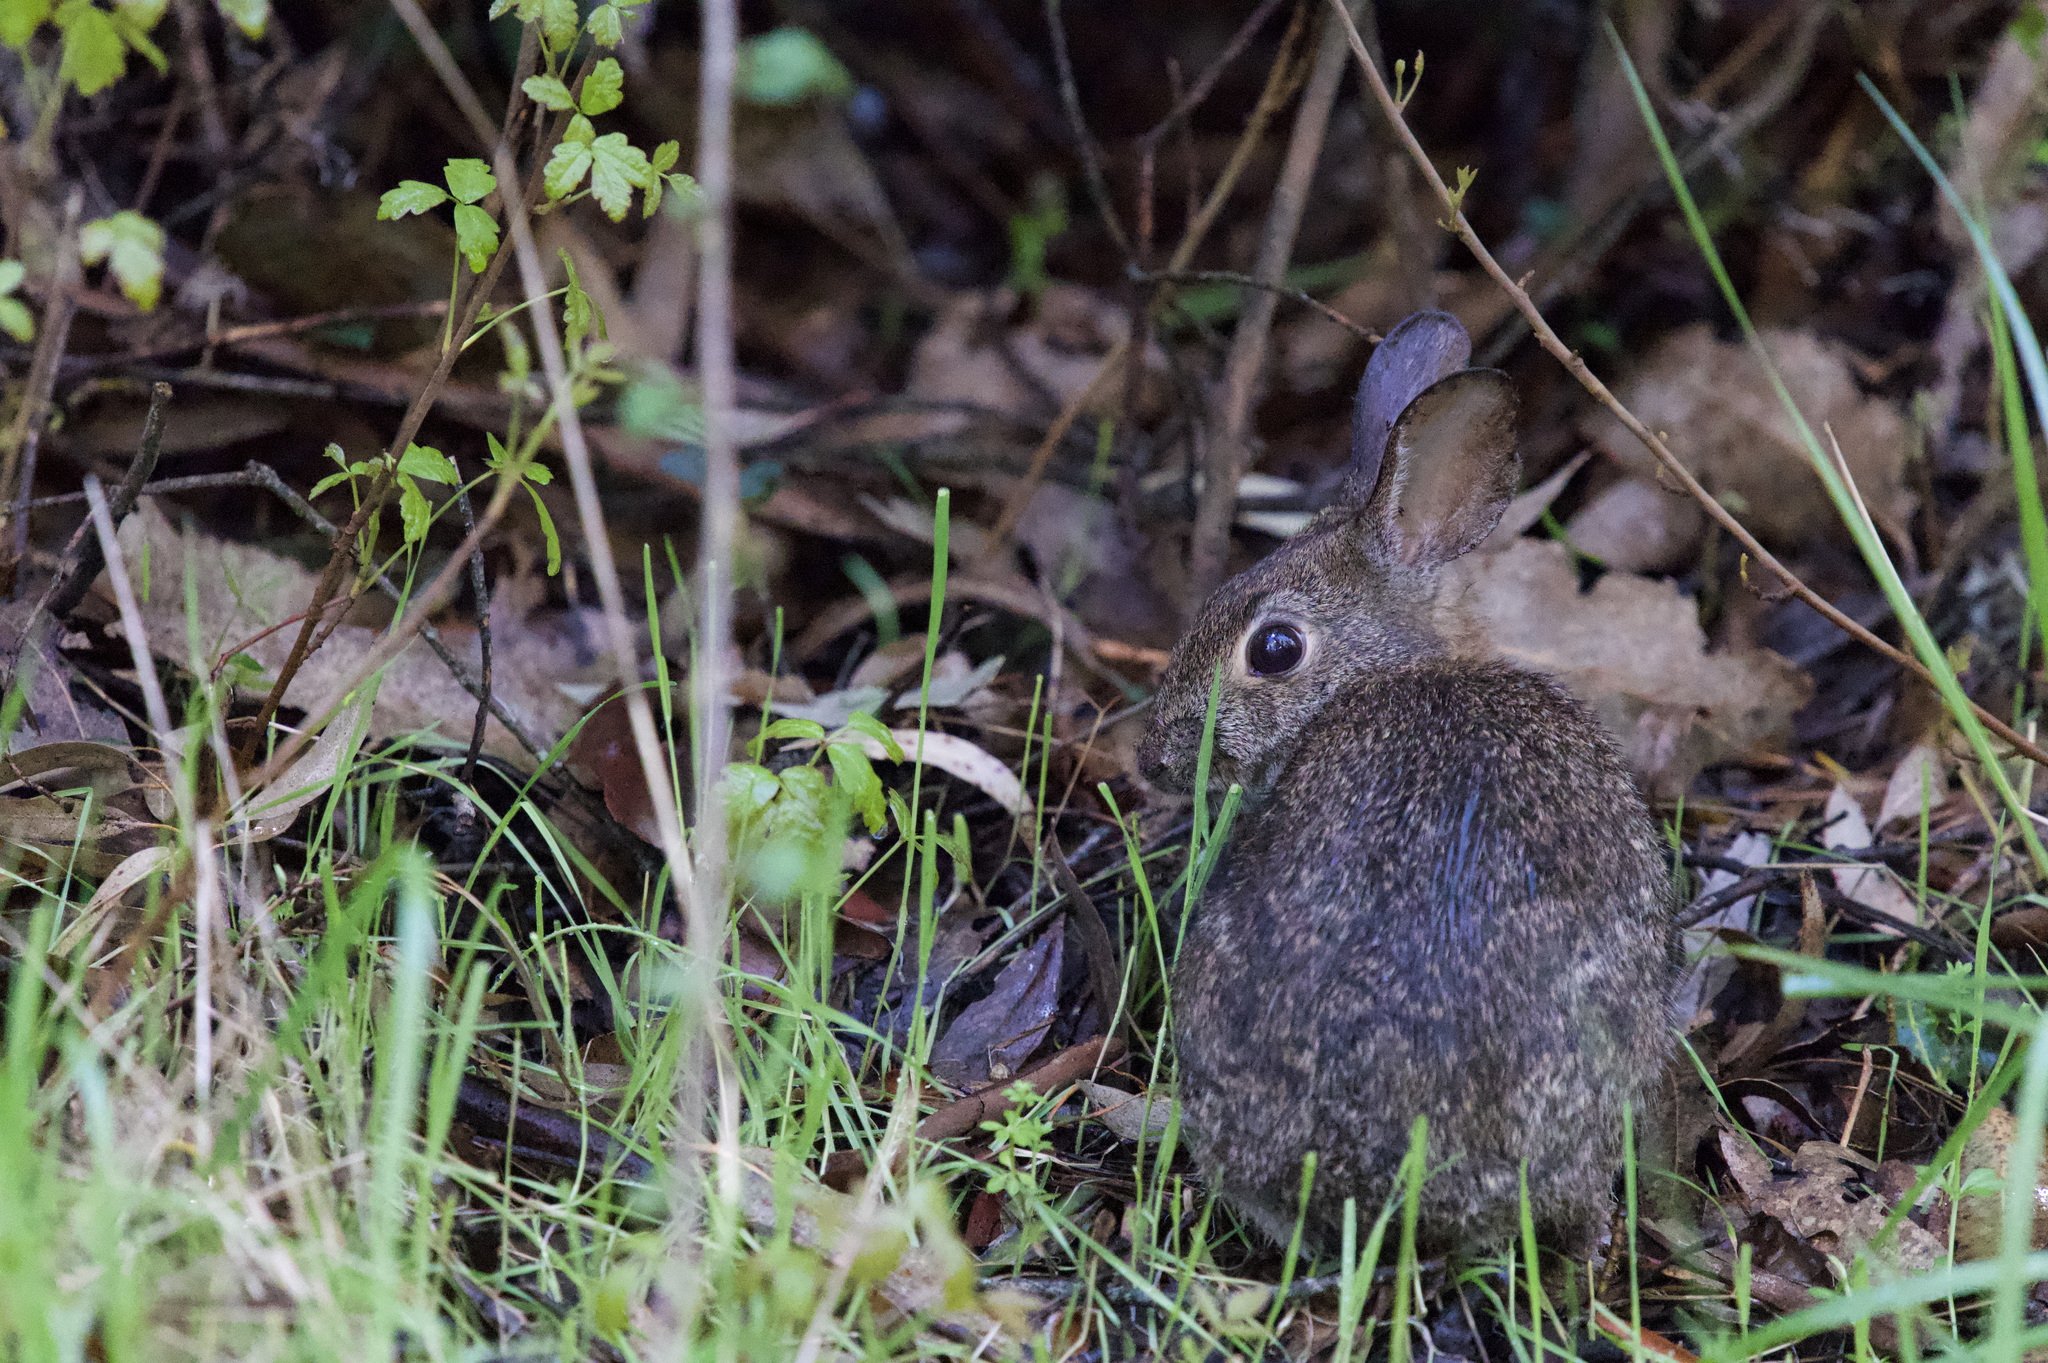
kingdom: Animalia
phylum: Chordata
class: Mammalia
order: Lagomorpha
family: Leporidae
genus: Sylvilagus
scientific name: Sylvilagus bachmani
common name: Brush rabbit
